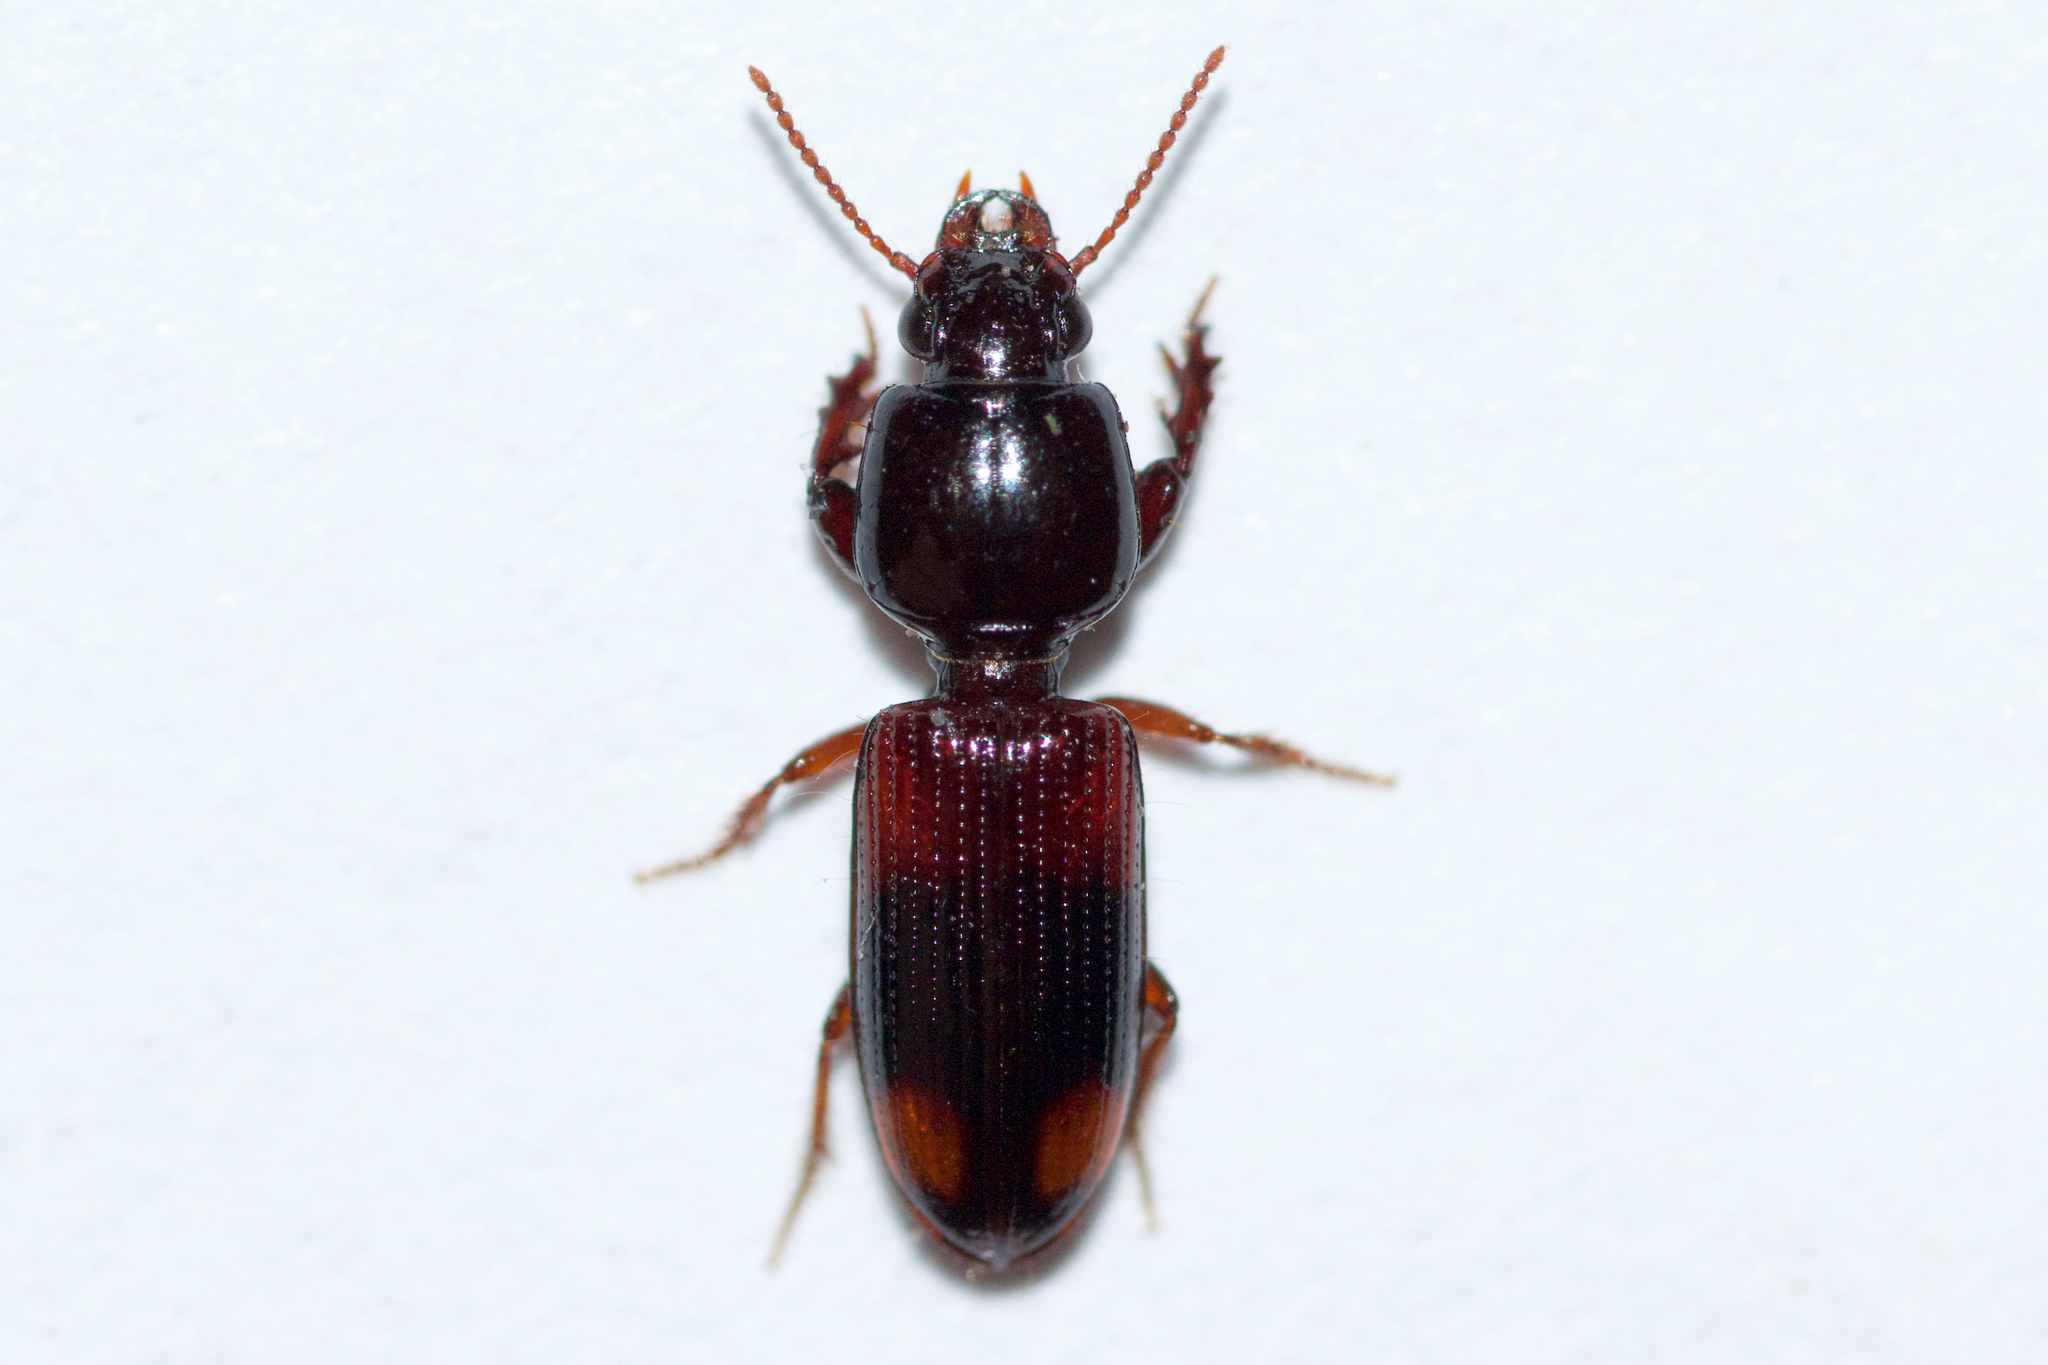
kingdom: Animalia
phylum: Arthropoda
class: Insecta
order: Coleoptera
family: Carabidae
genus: Clivina
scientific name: Clivina bipustulata
